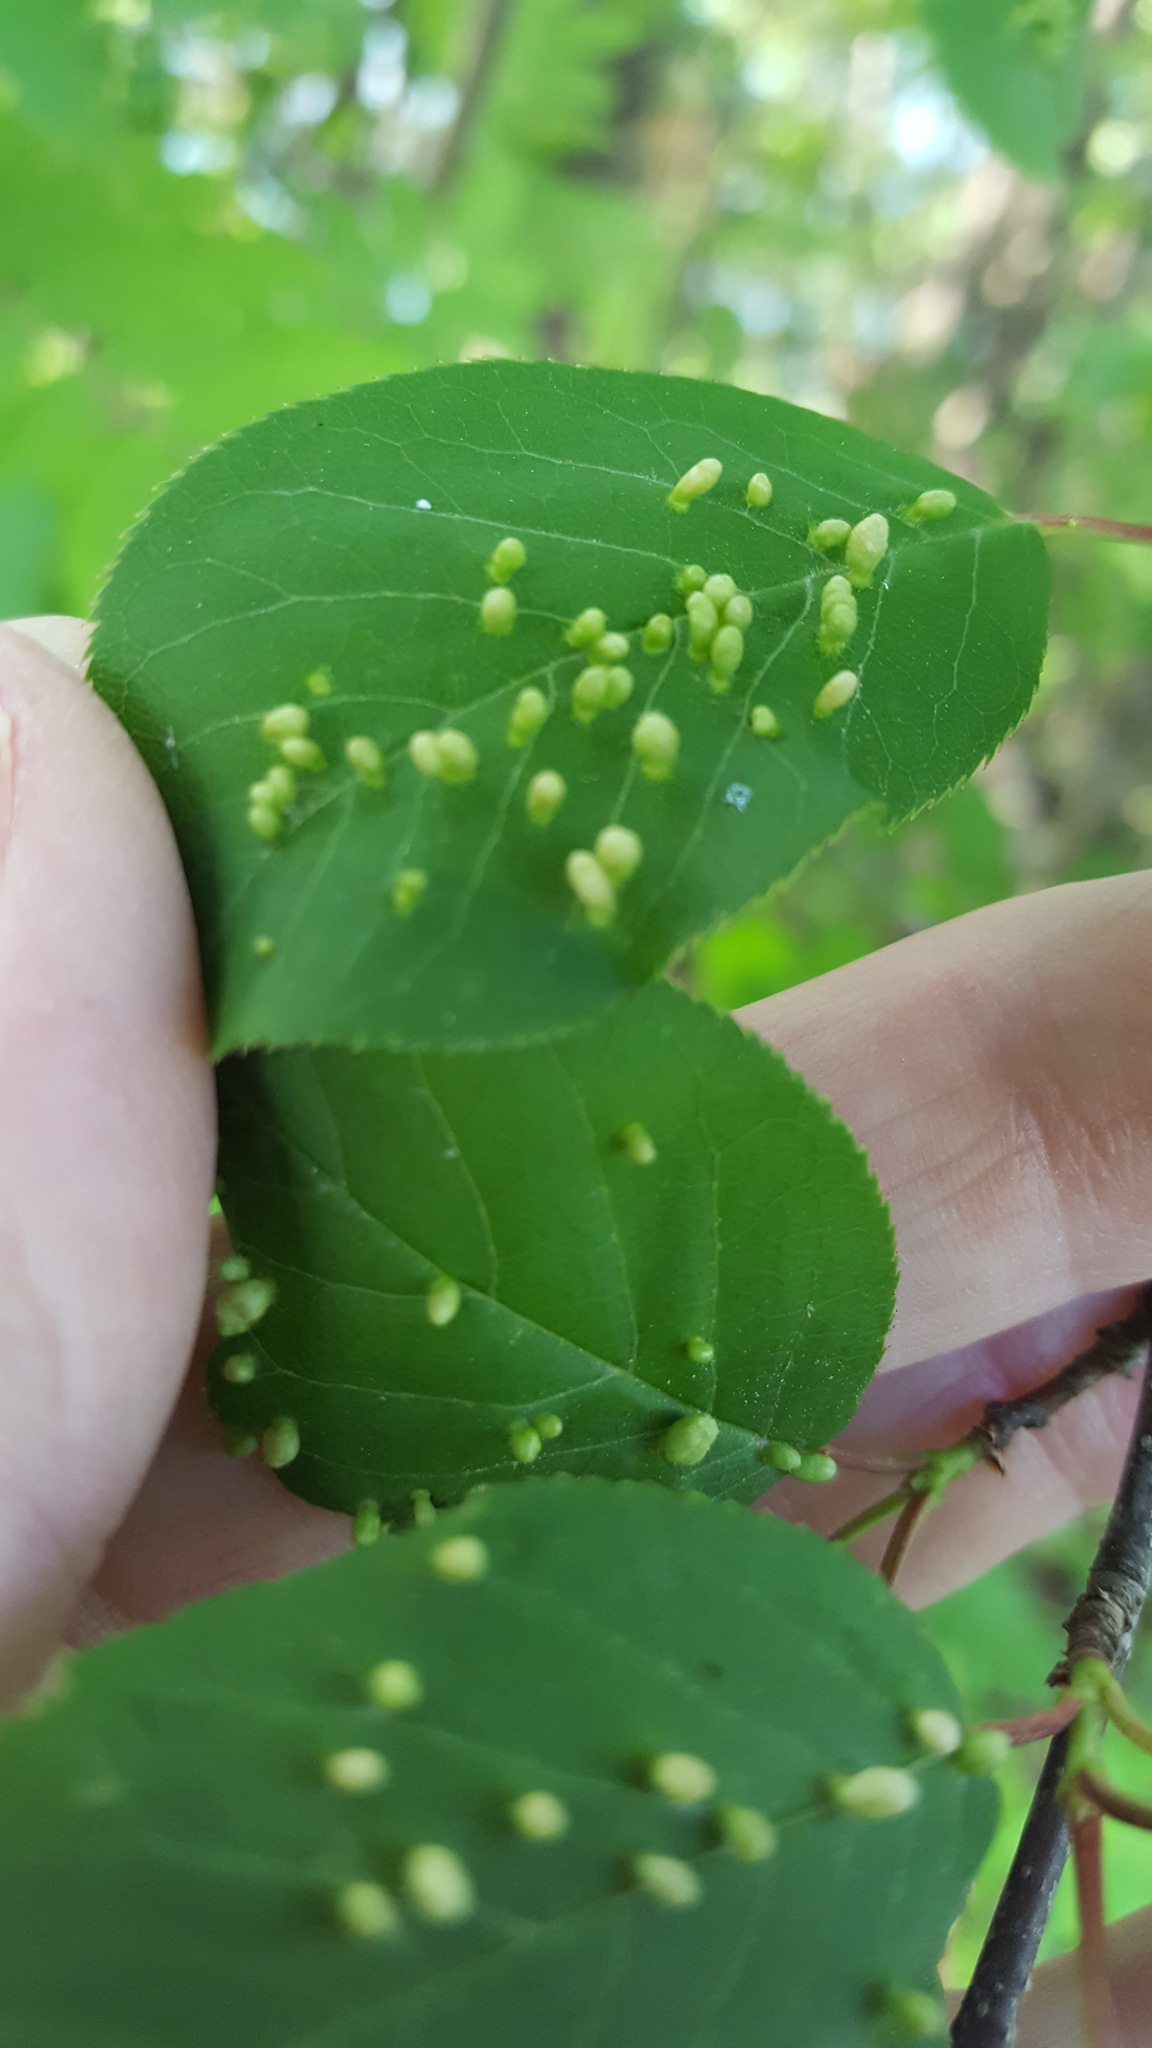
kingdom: Animalia
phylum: Arthropoda
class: Arachnida
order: Trombidiformes
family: Eriophyidae
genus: Eriophyes
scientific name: Eriophyes emarginatae
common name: Plum leaf gall mite
